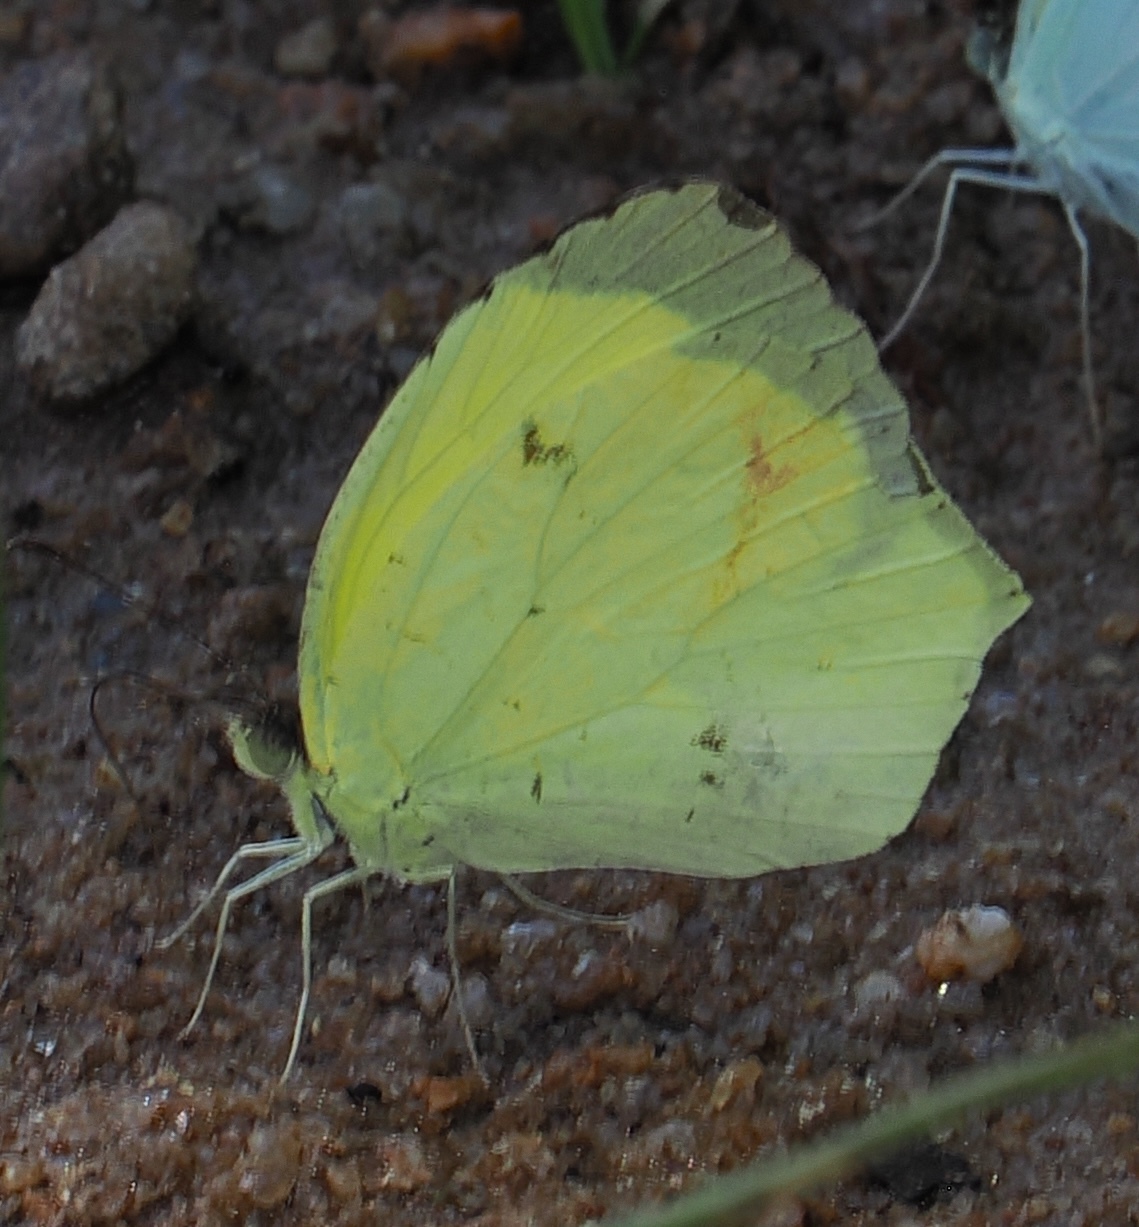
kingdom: Animalia
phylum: Arthropoda
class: Insecta
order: Lepidoptera
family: Pieridae
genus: Abaeis
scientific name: Abaeis
